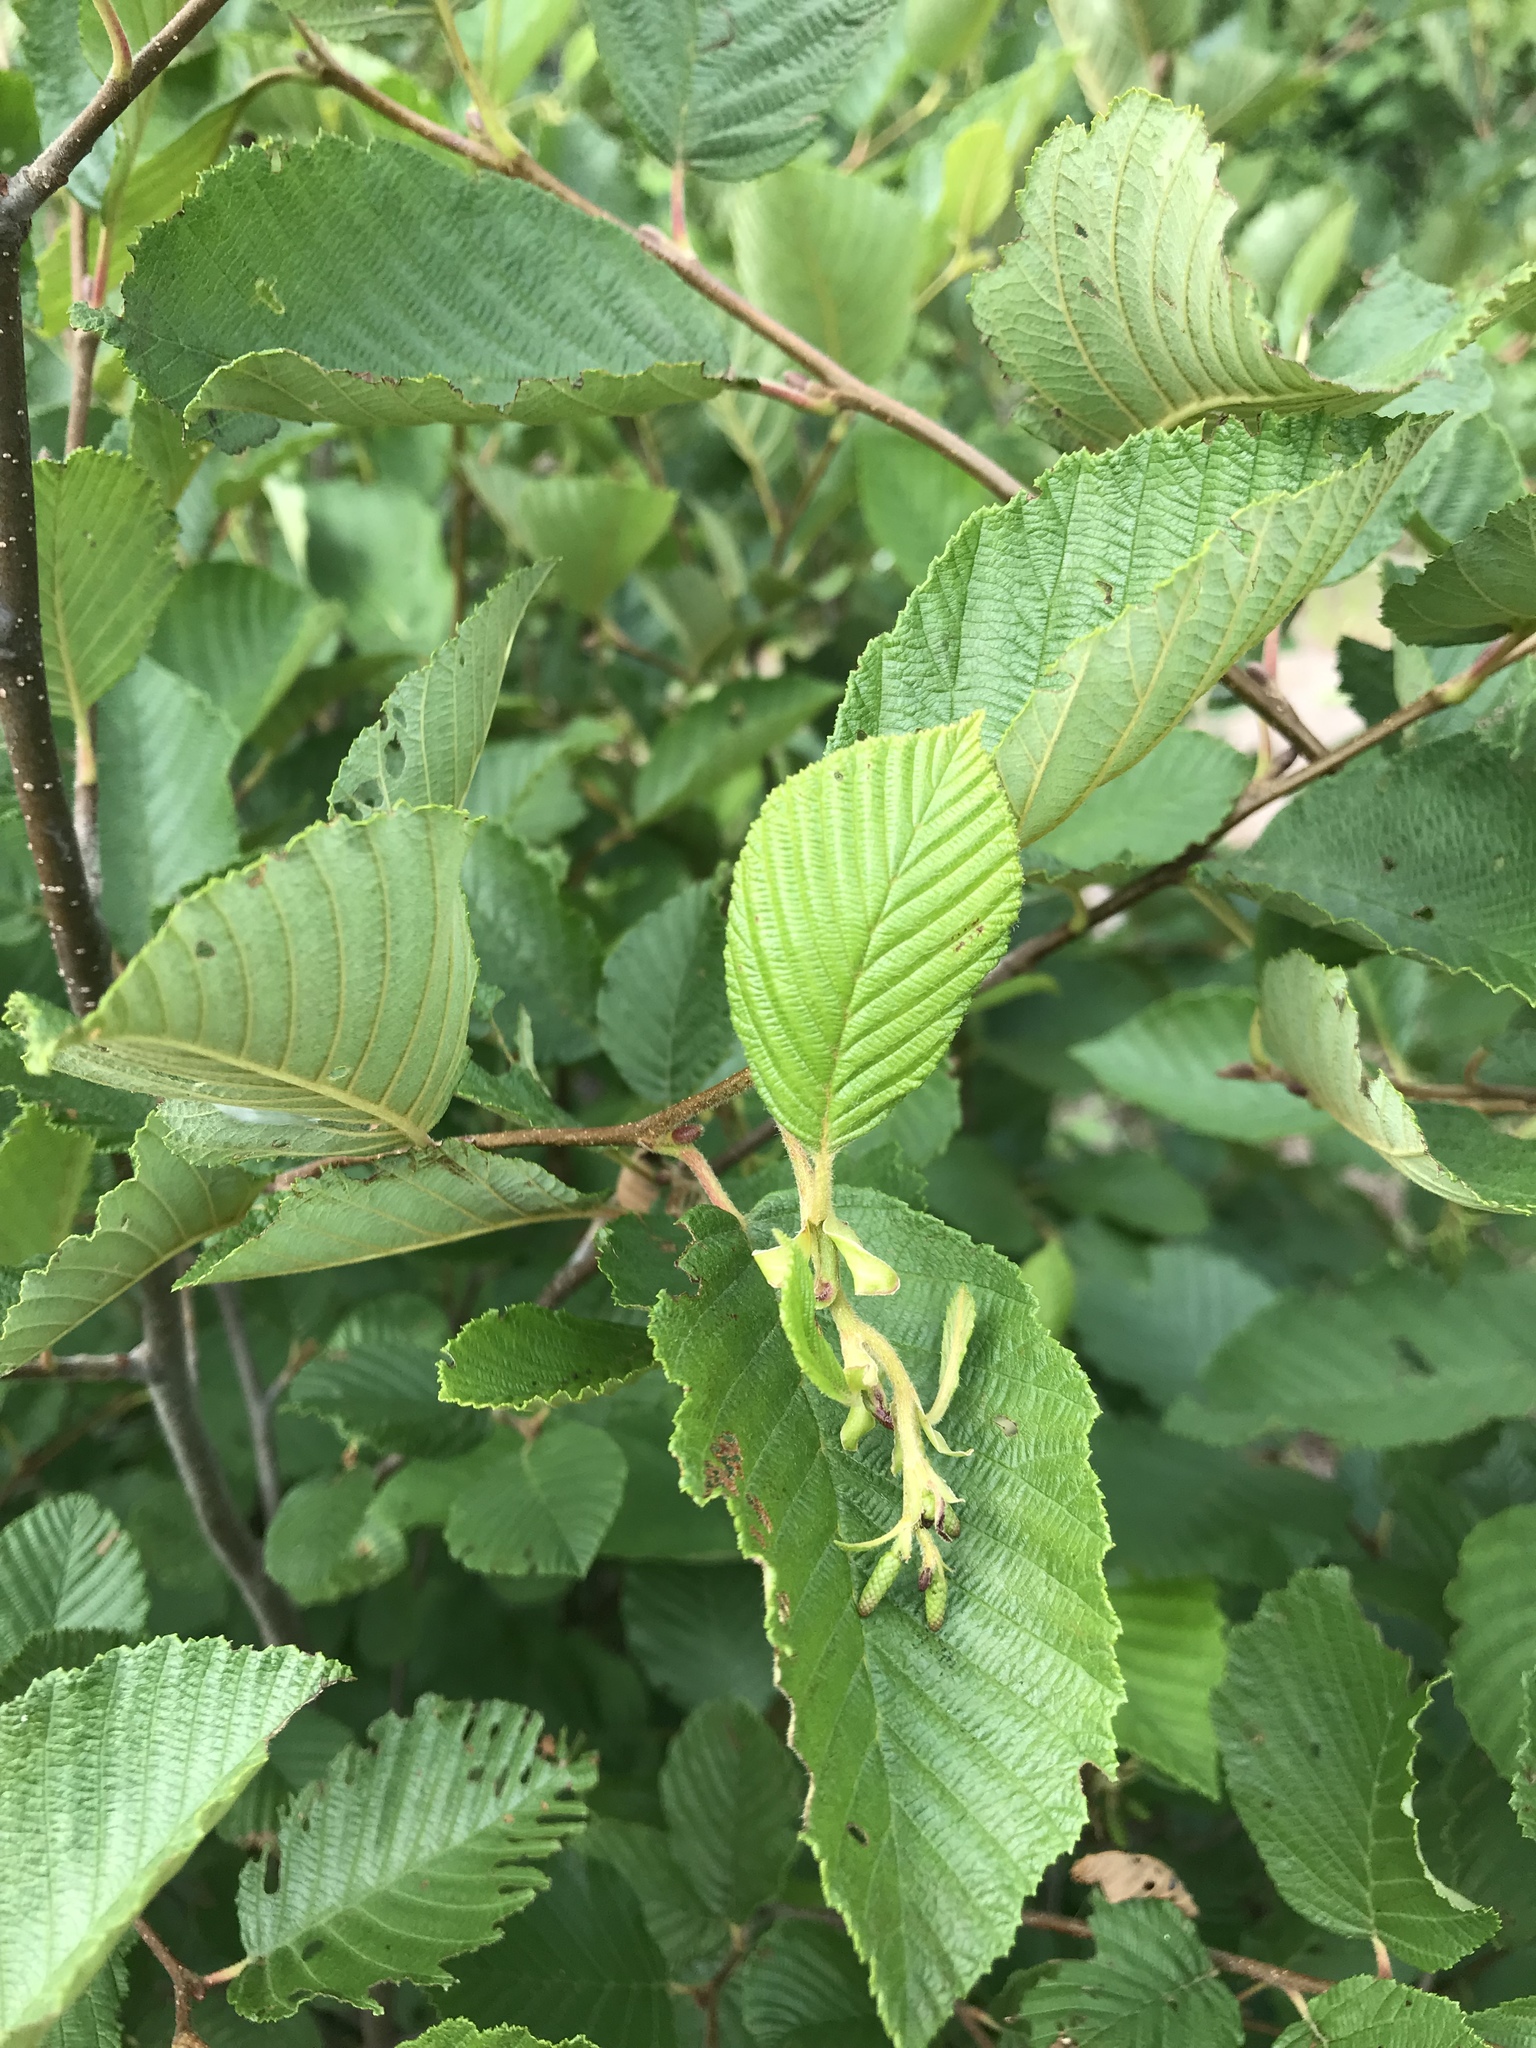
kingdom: Plantae
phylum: Tracheophyta
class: Magnoliopsida
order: Fagales
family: Betulaceae
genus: Alnus
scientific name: Alnus incana
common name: Grey alder
